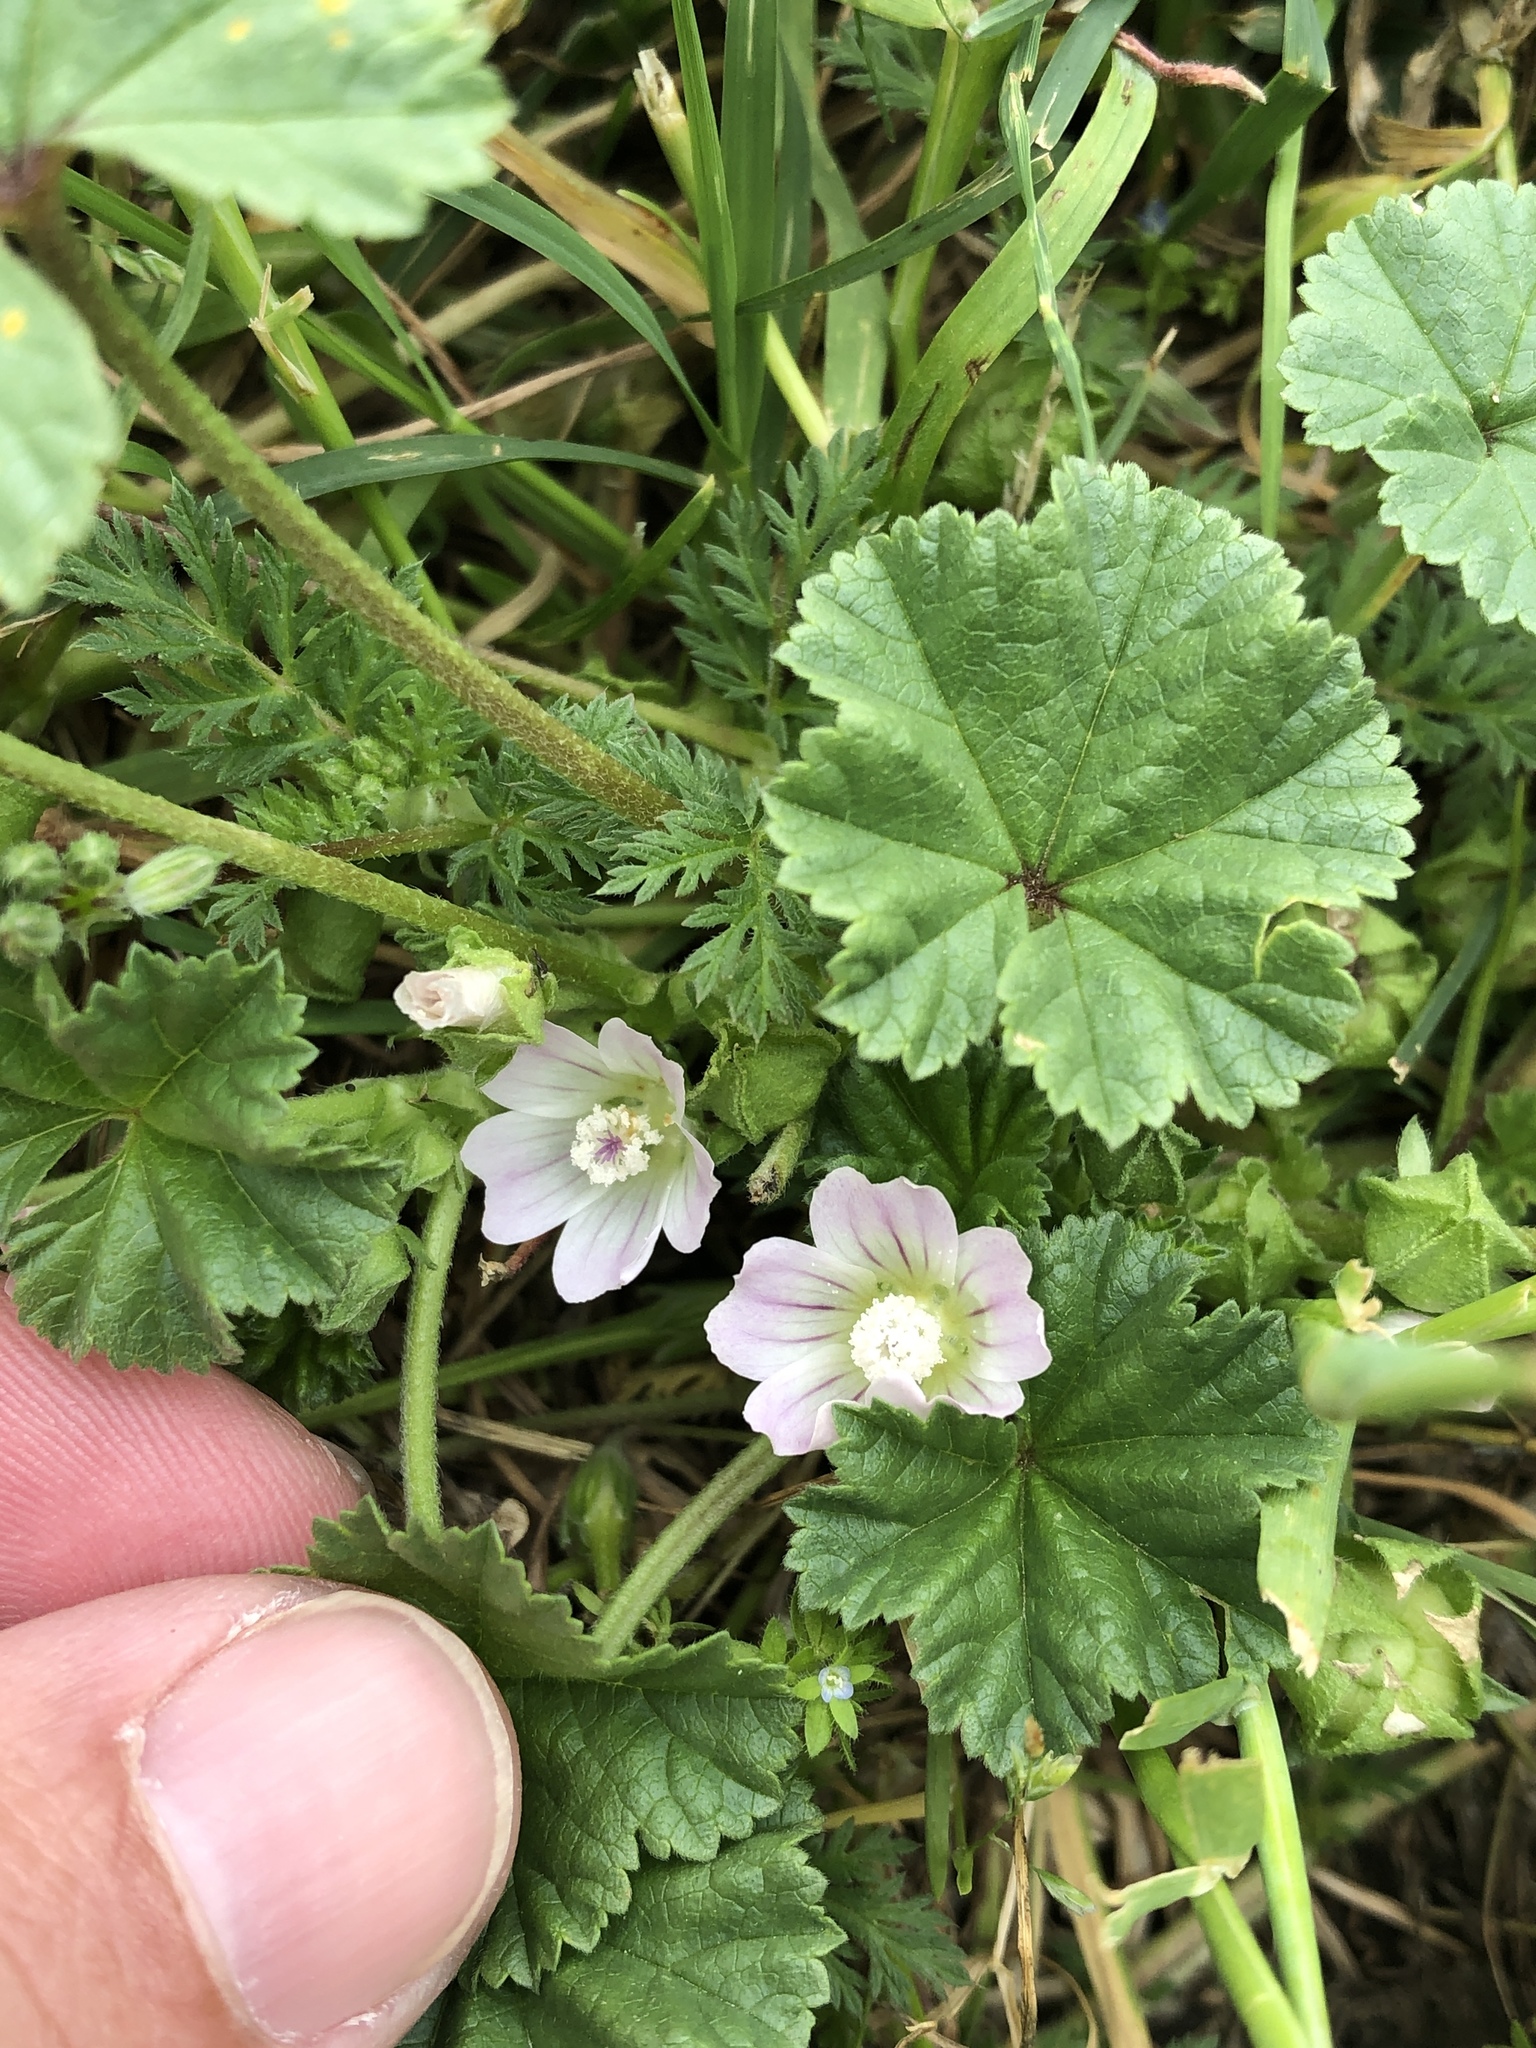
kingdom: Plantae
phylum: Tracheophyta
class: Magnoliopsida
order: Malvales
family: Malvaceae
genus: Malva
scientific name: Malva neglecta
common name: Common mallow
